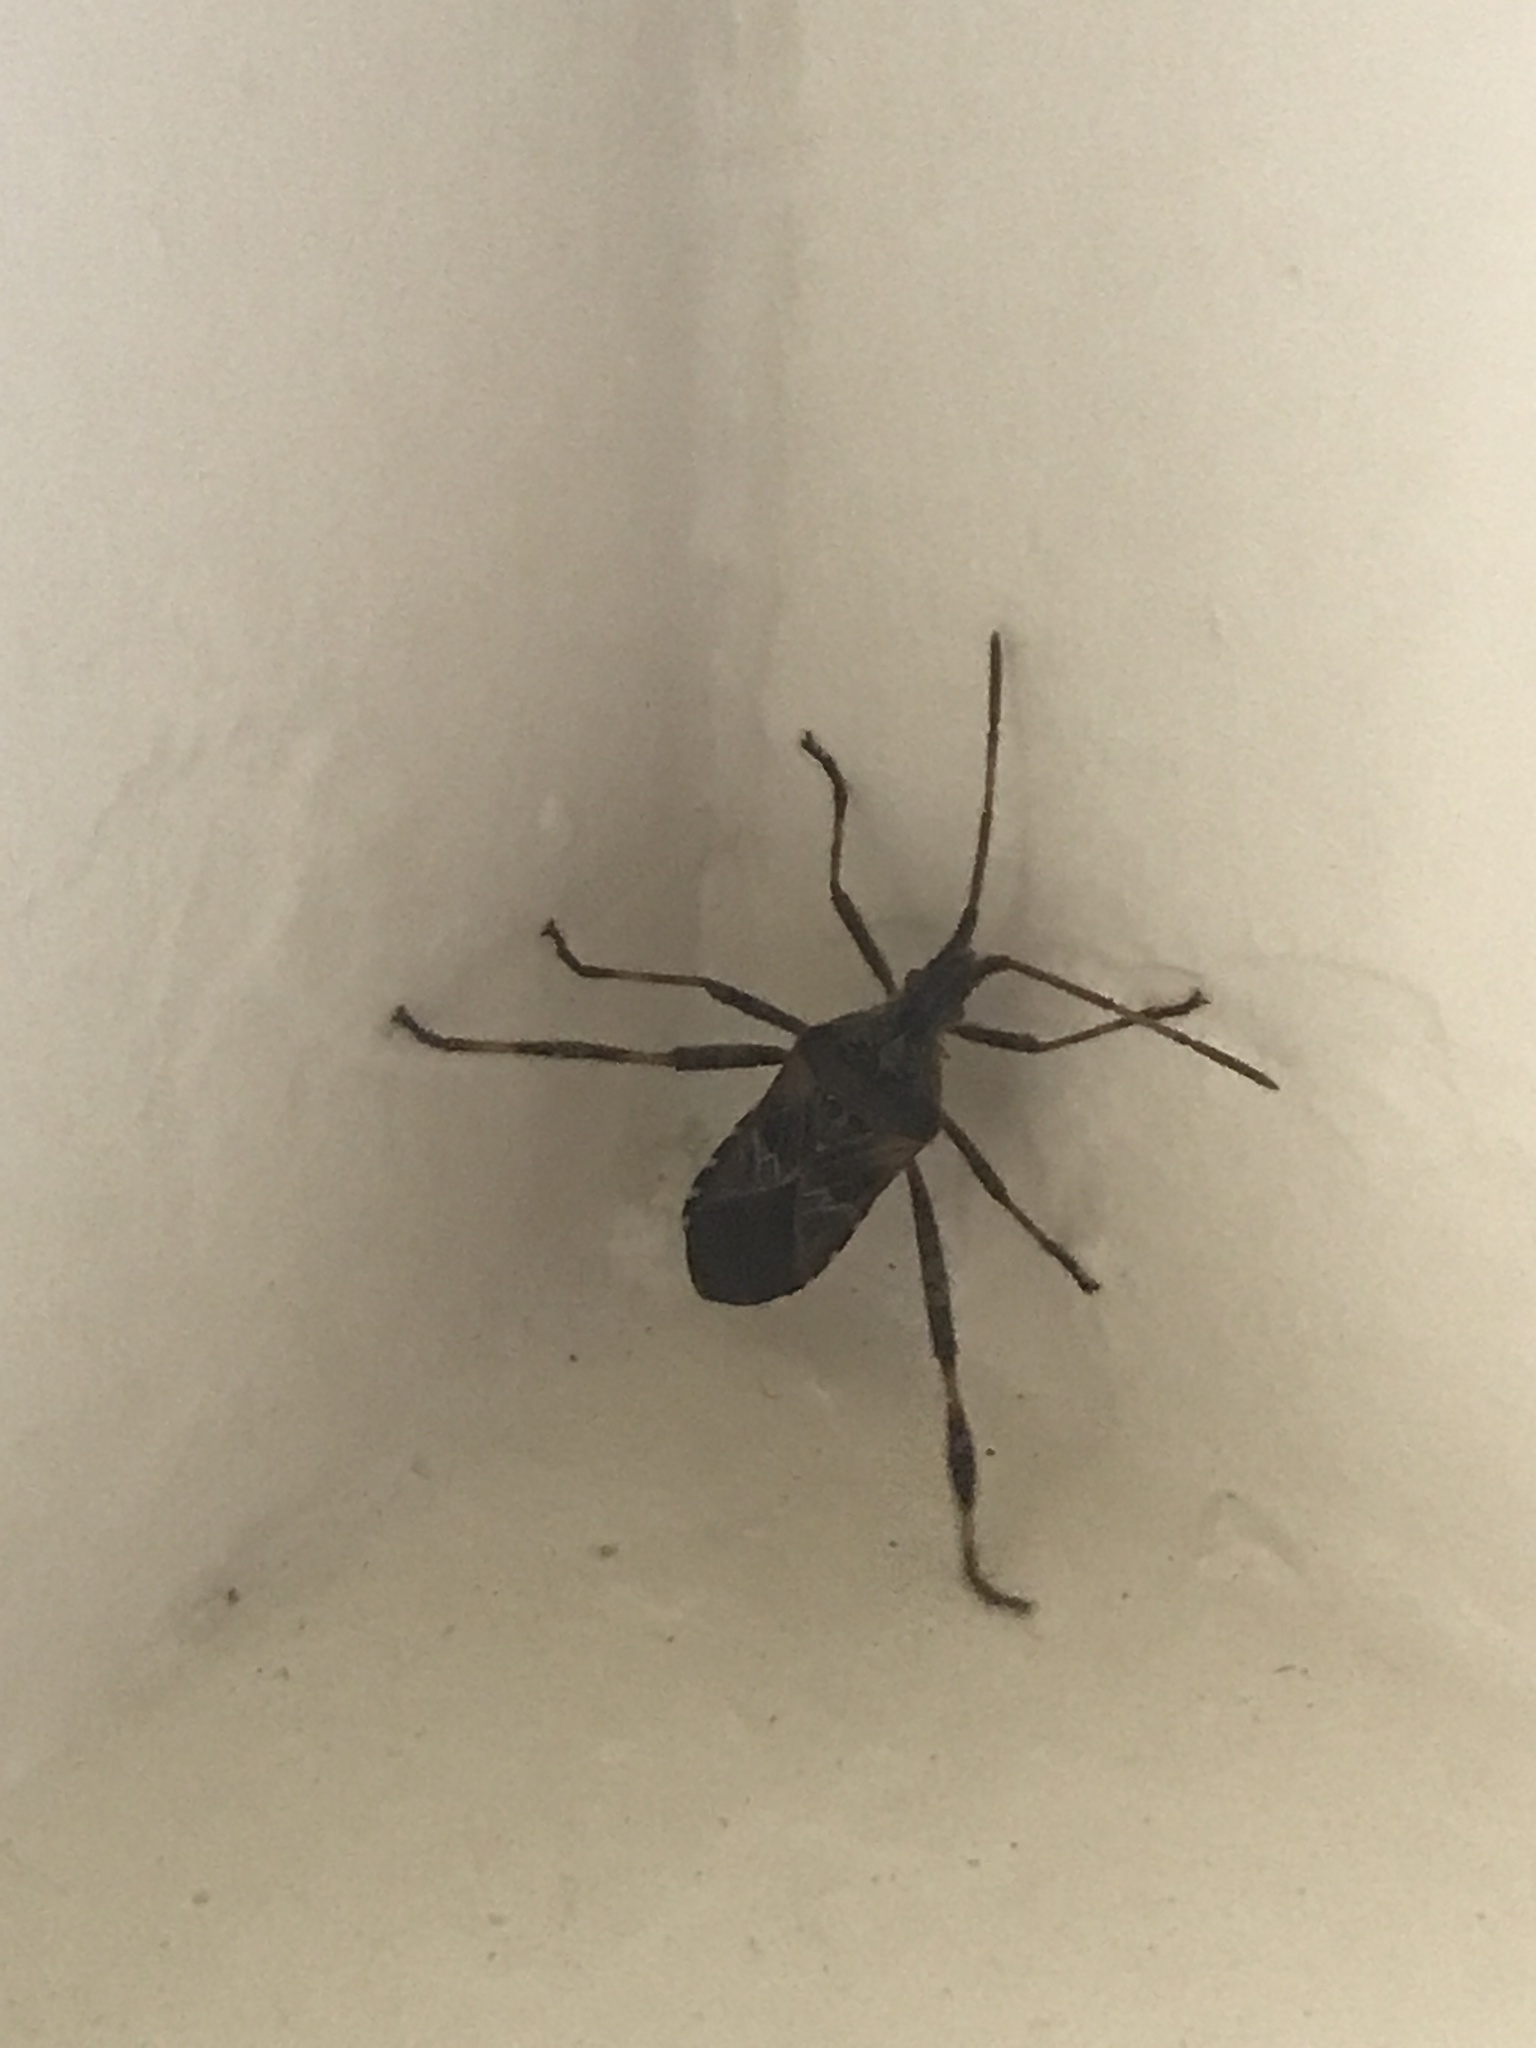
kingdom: Animalia
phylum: Arthropoda
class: Insecta
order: Hemiptera
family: Coreidae
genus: Leptoglossus
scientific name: Leptoglossus occidentalis
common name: Western conifer-seed bug
